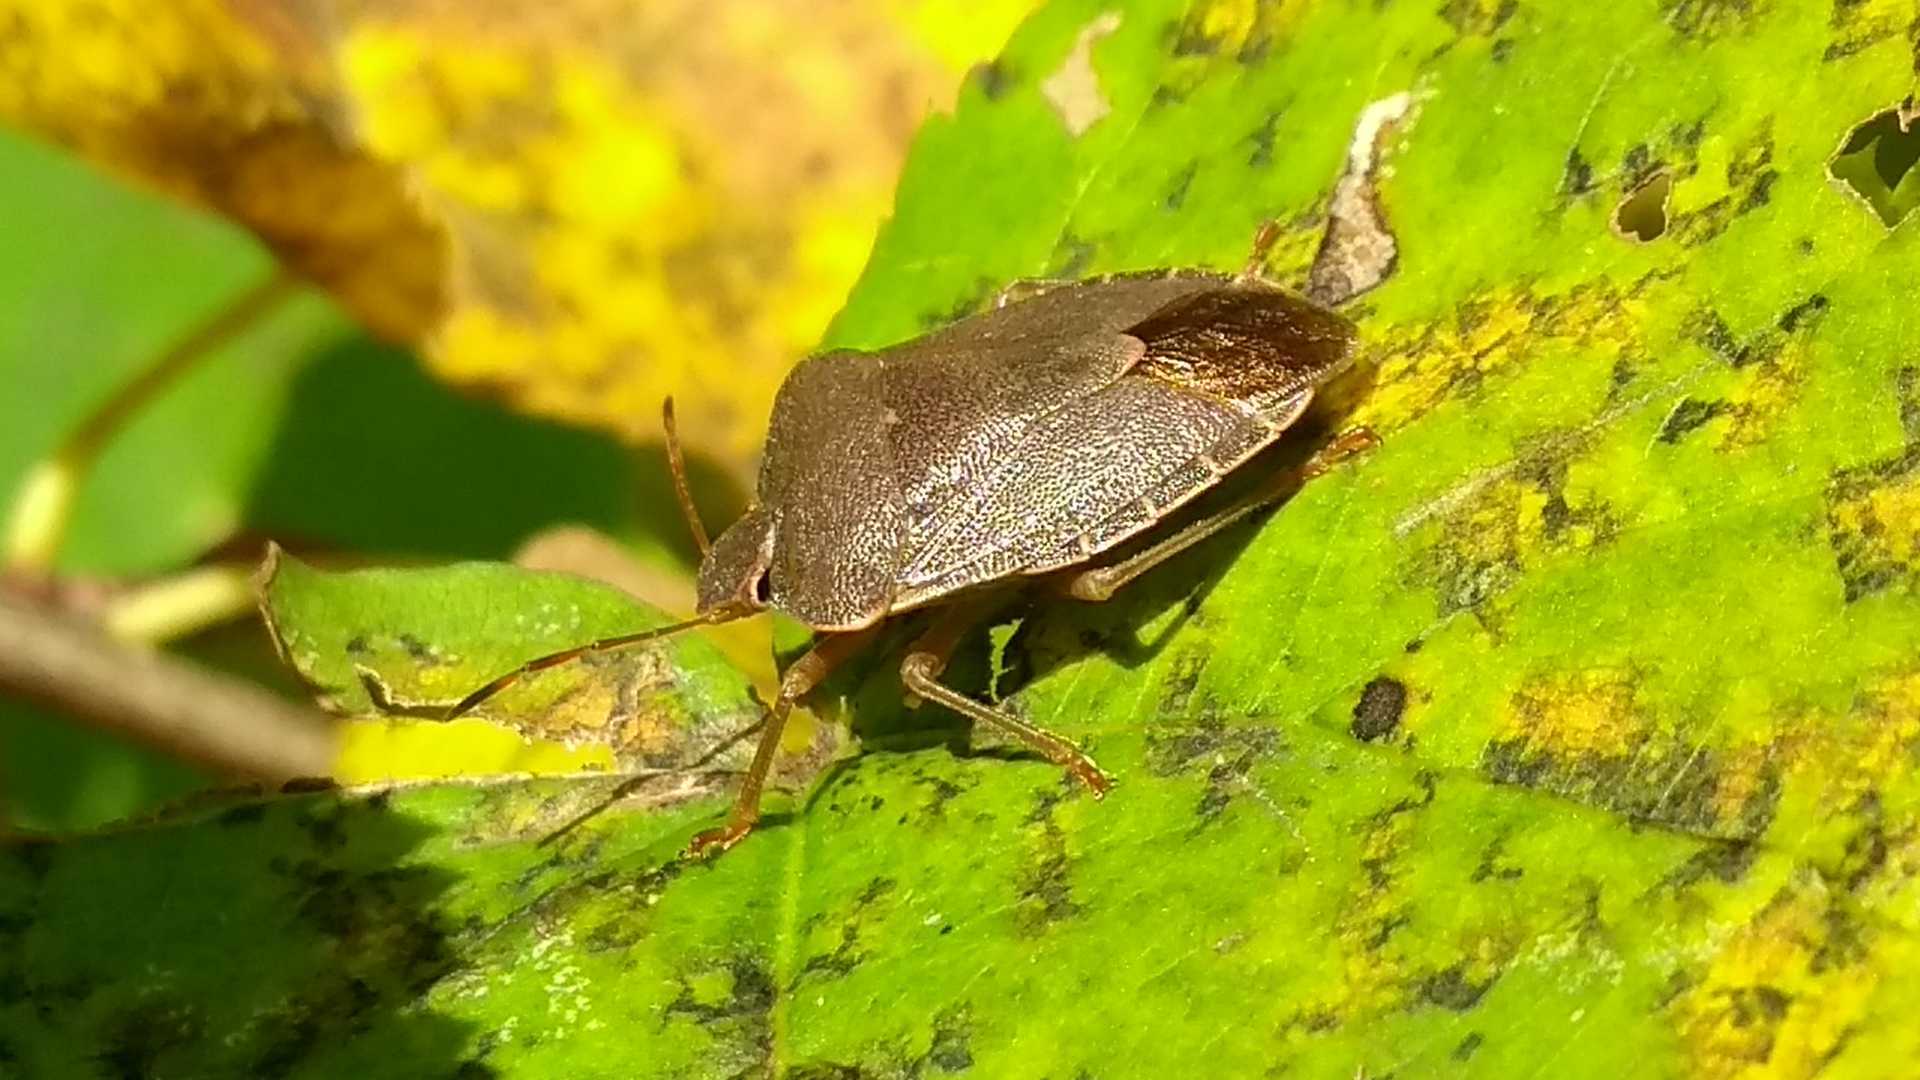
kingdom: Animalia
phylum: Arthropoda
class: Insecta
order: Hemiptera
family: Pentatomidae
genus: Palomena
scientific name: Palomena prasina
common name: Green shieldbug
